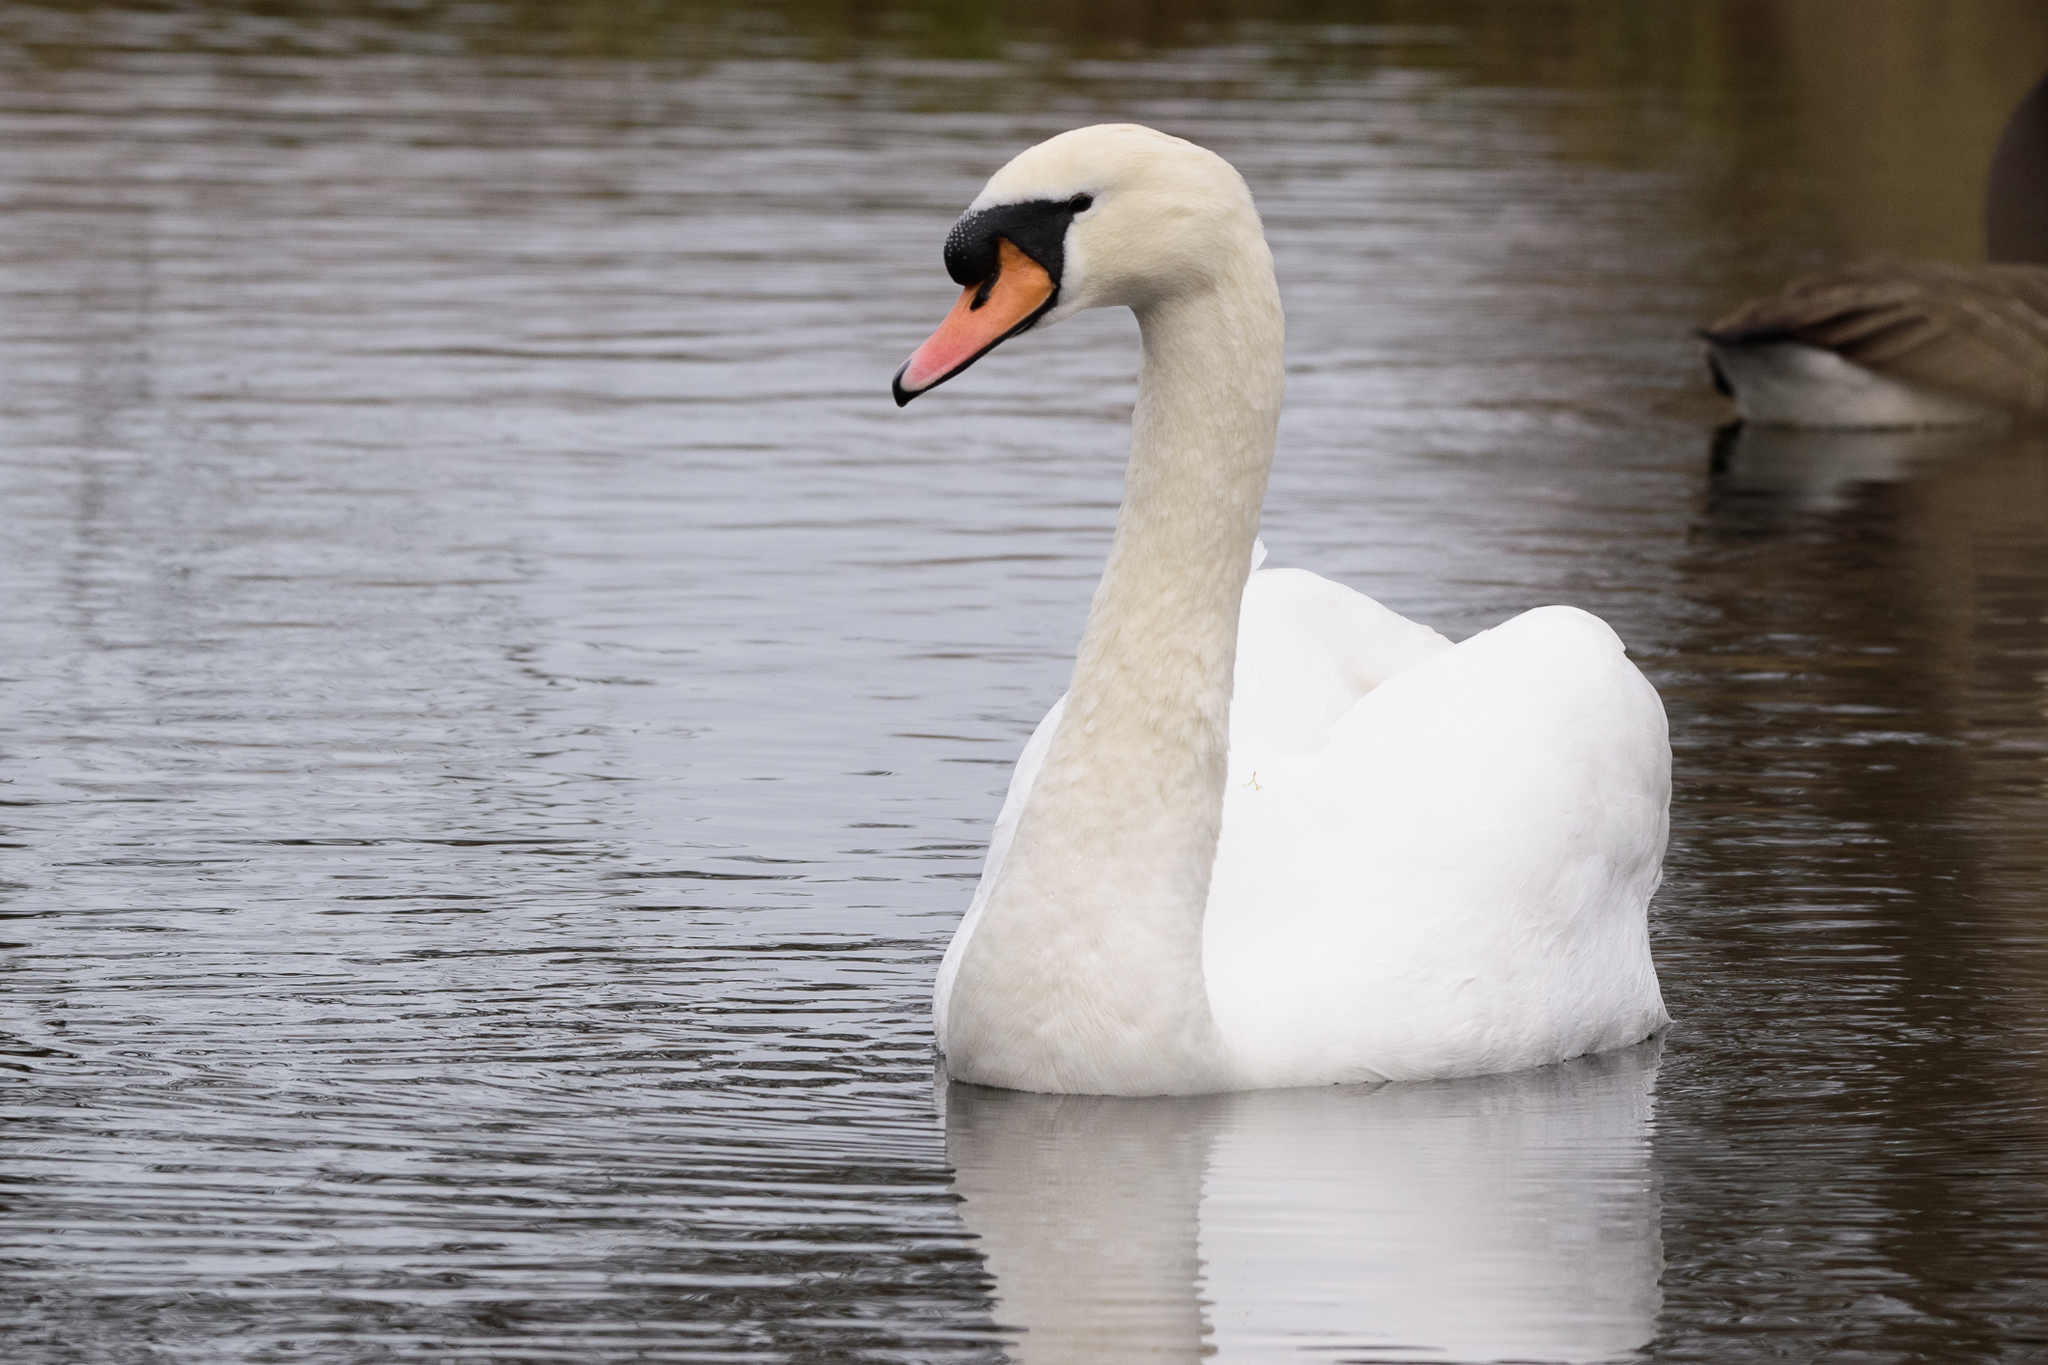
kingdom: Animalia
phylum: Chordata
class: Aves
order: Anseriformes
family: Anatidae
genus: Cygnus
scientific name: Cygnus olor
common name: Mute swan
